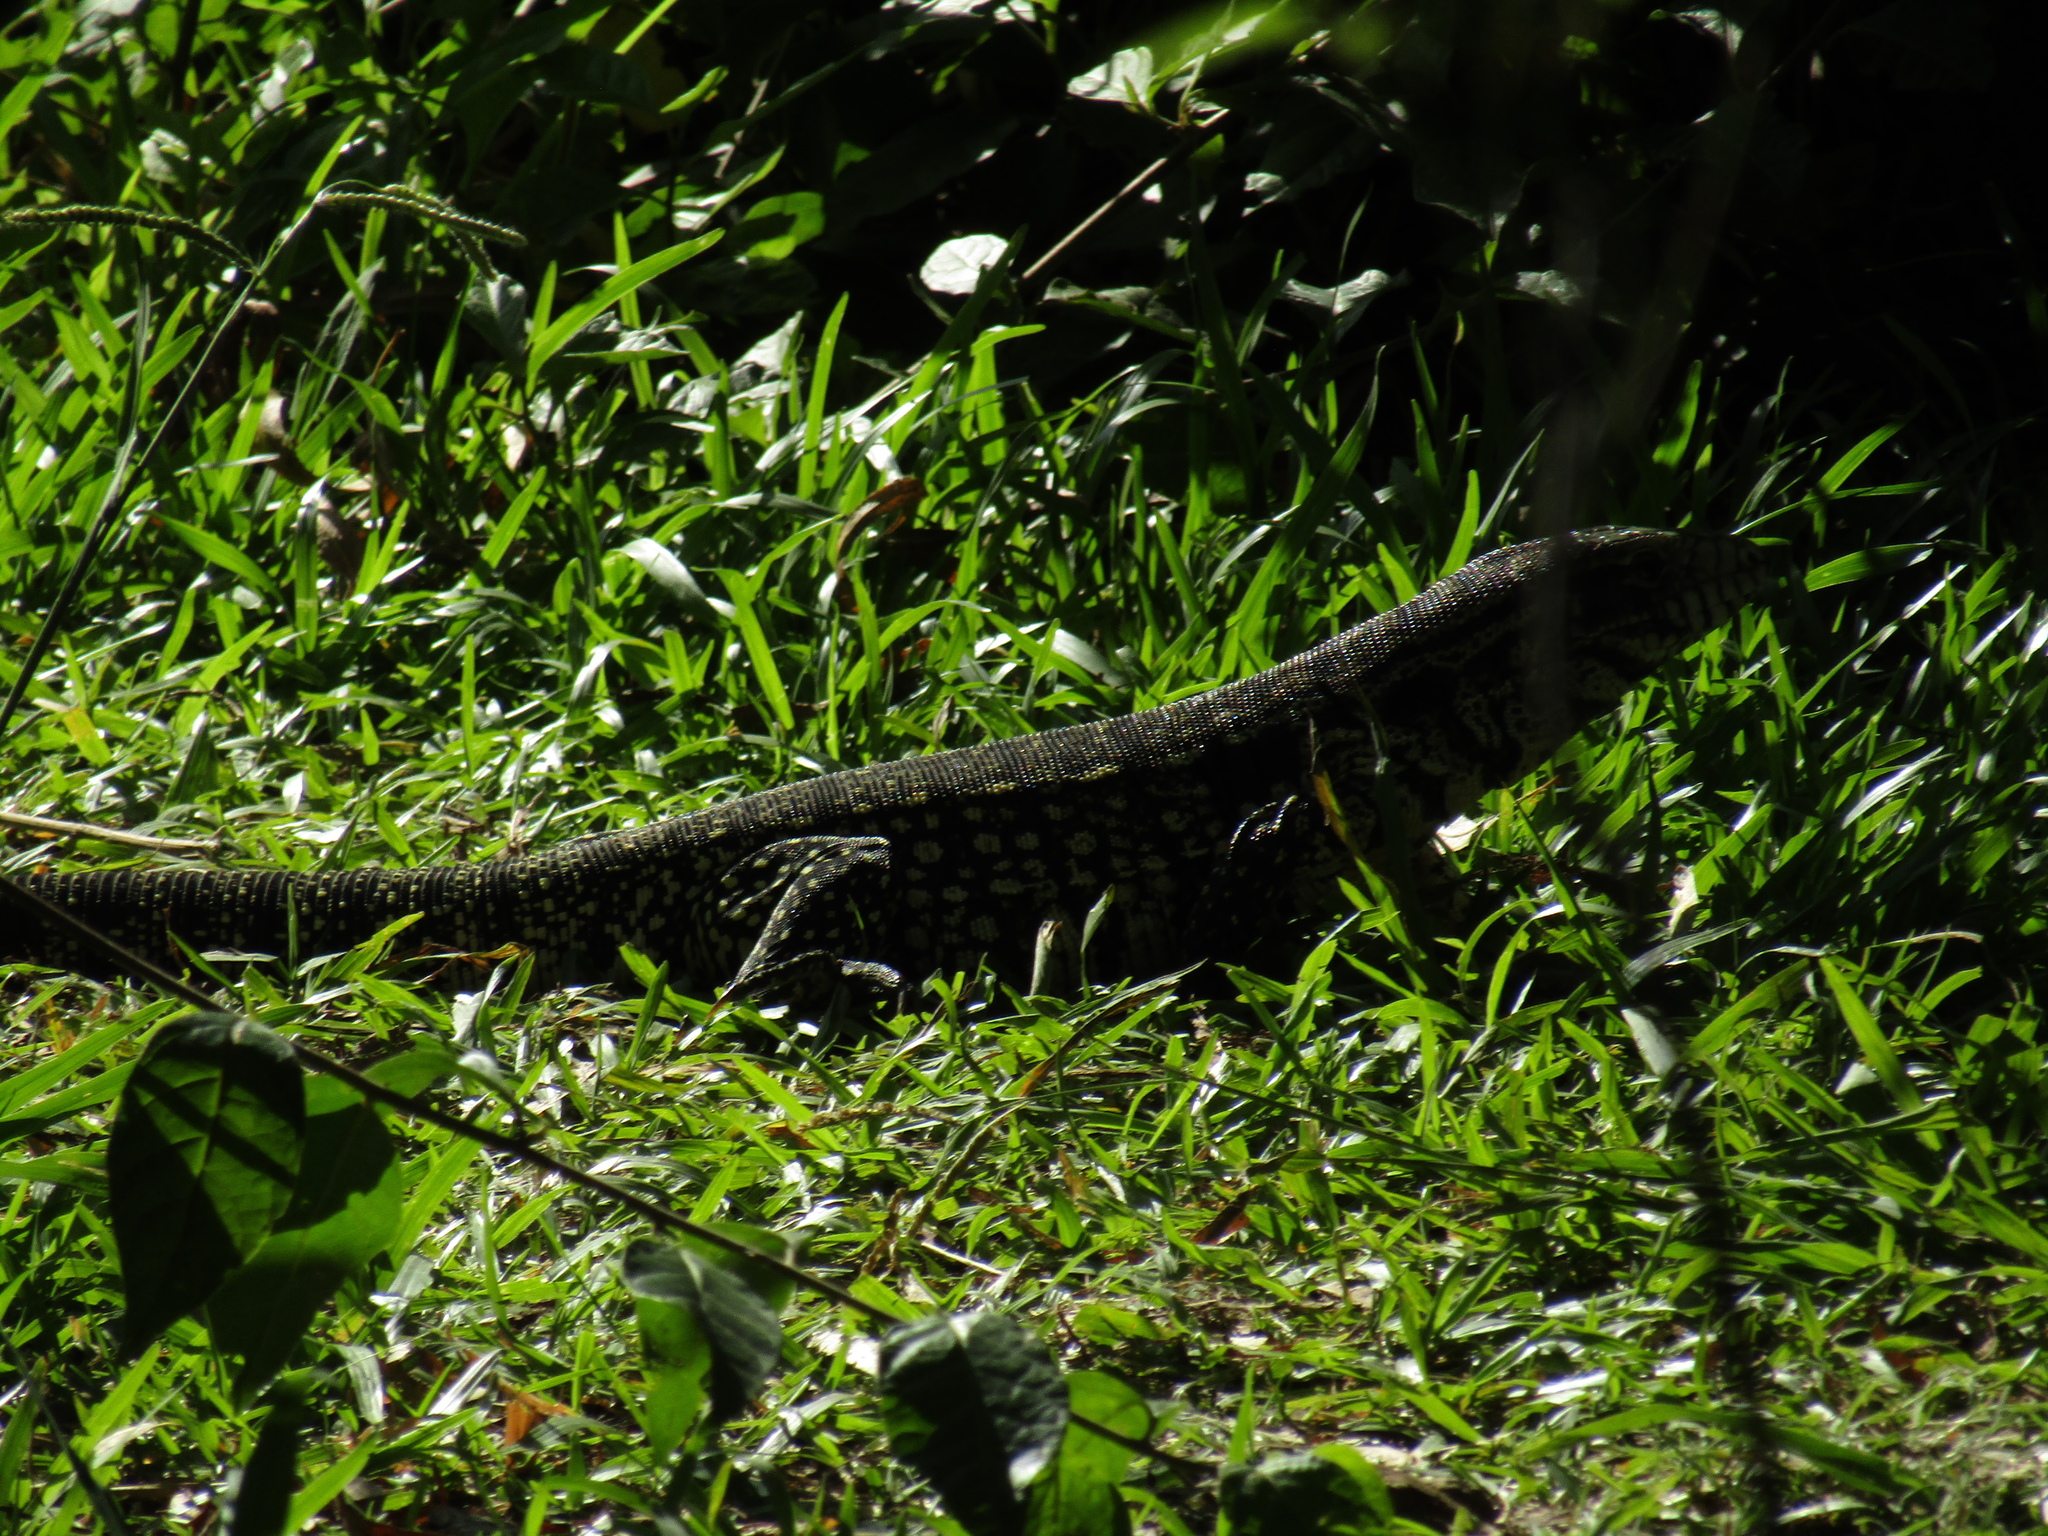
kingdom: Animalia
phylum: Chordata
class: Squamata
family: Teiidae
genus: Salvator
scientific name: Salvator merianae
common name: Argentine black and white tegu
